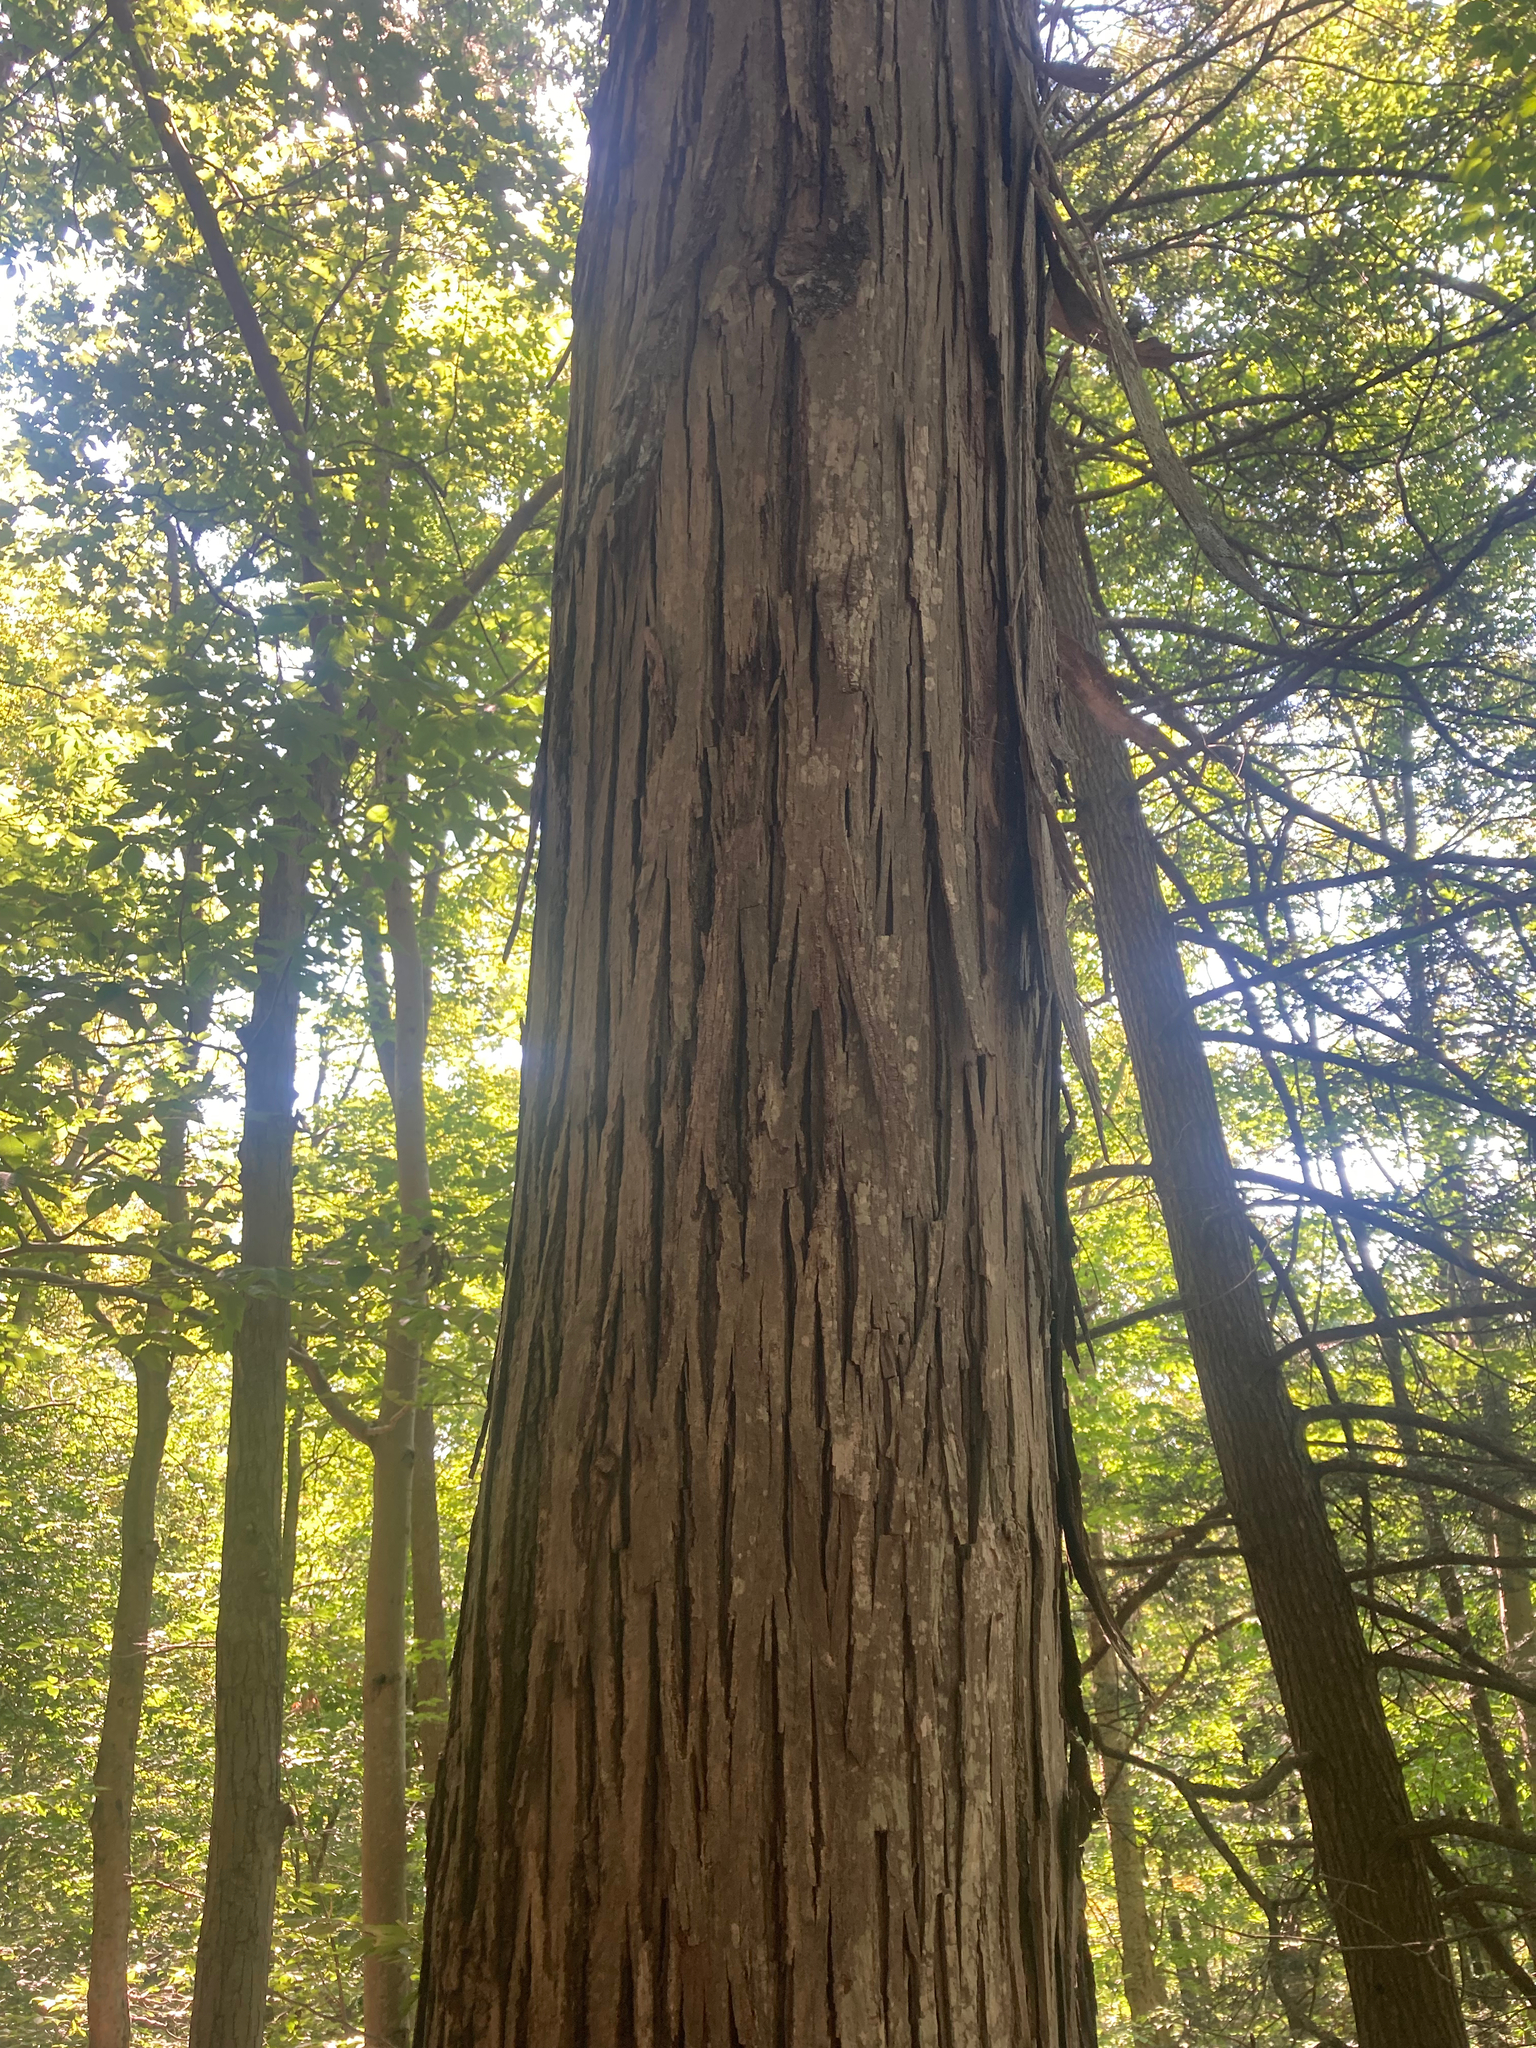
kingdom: Plantae
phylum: Tracheophyta
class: Magnoliopsida
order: Fagales
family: Juglandaceae
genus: Carya
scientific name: Carya ovata
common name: Shagbark hickory
